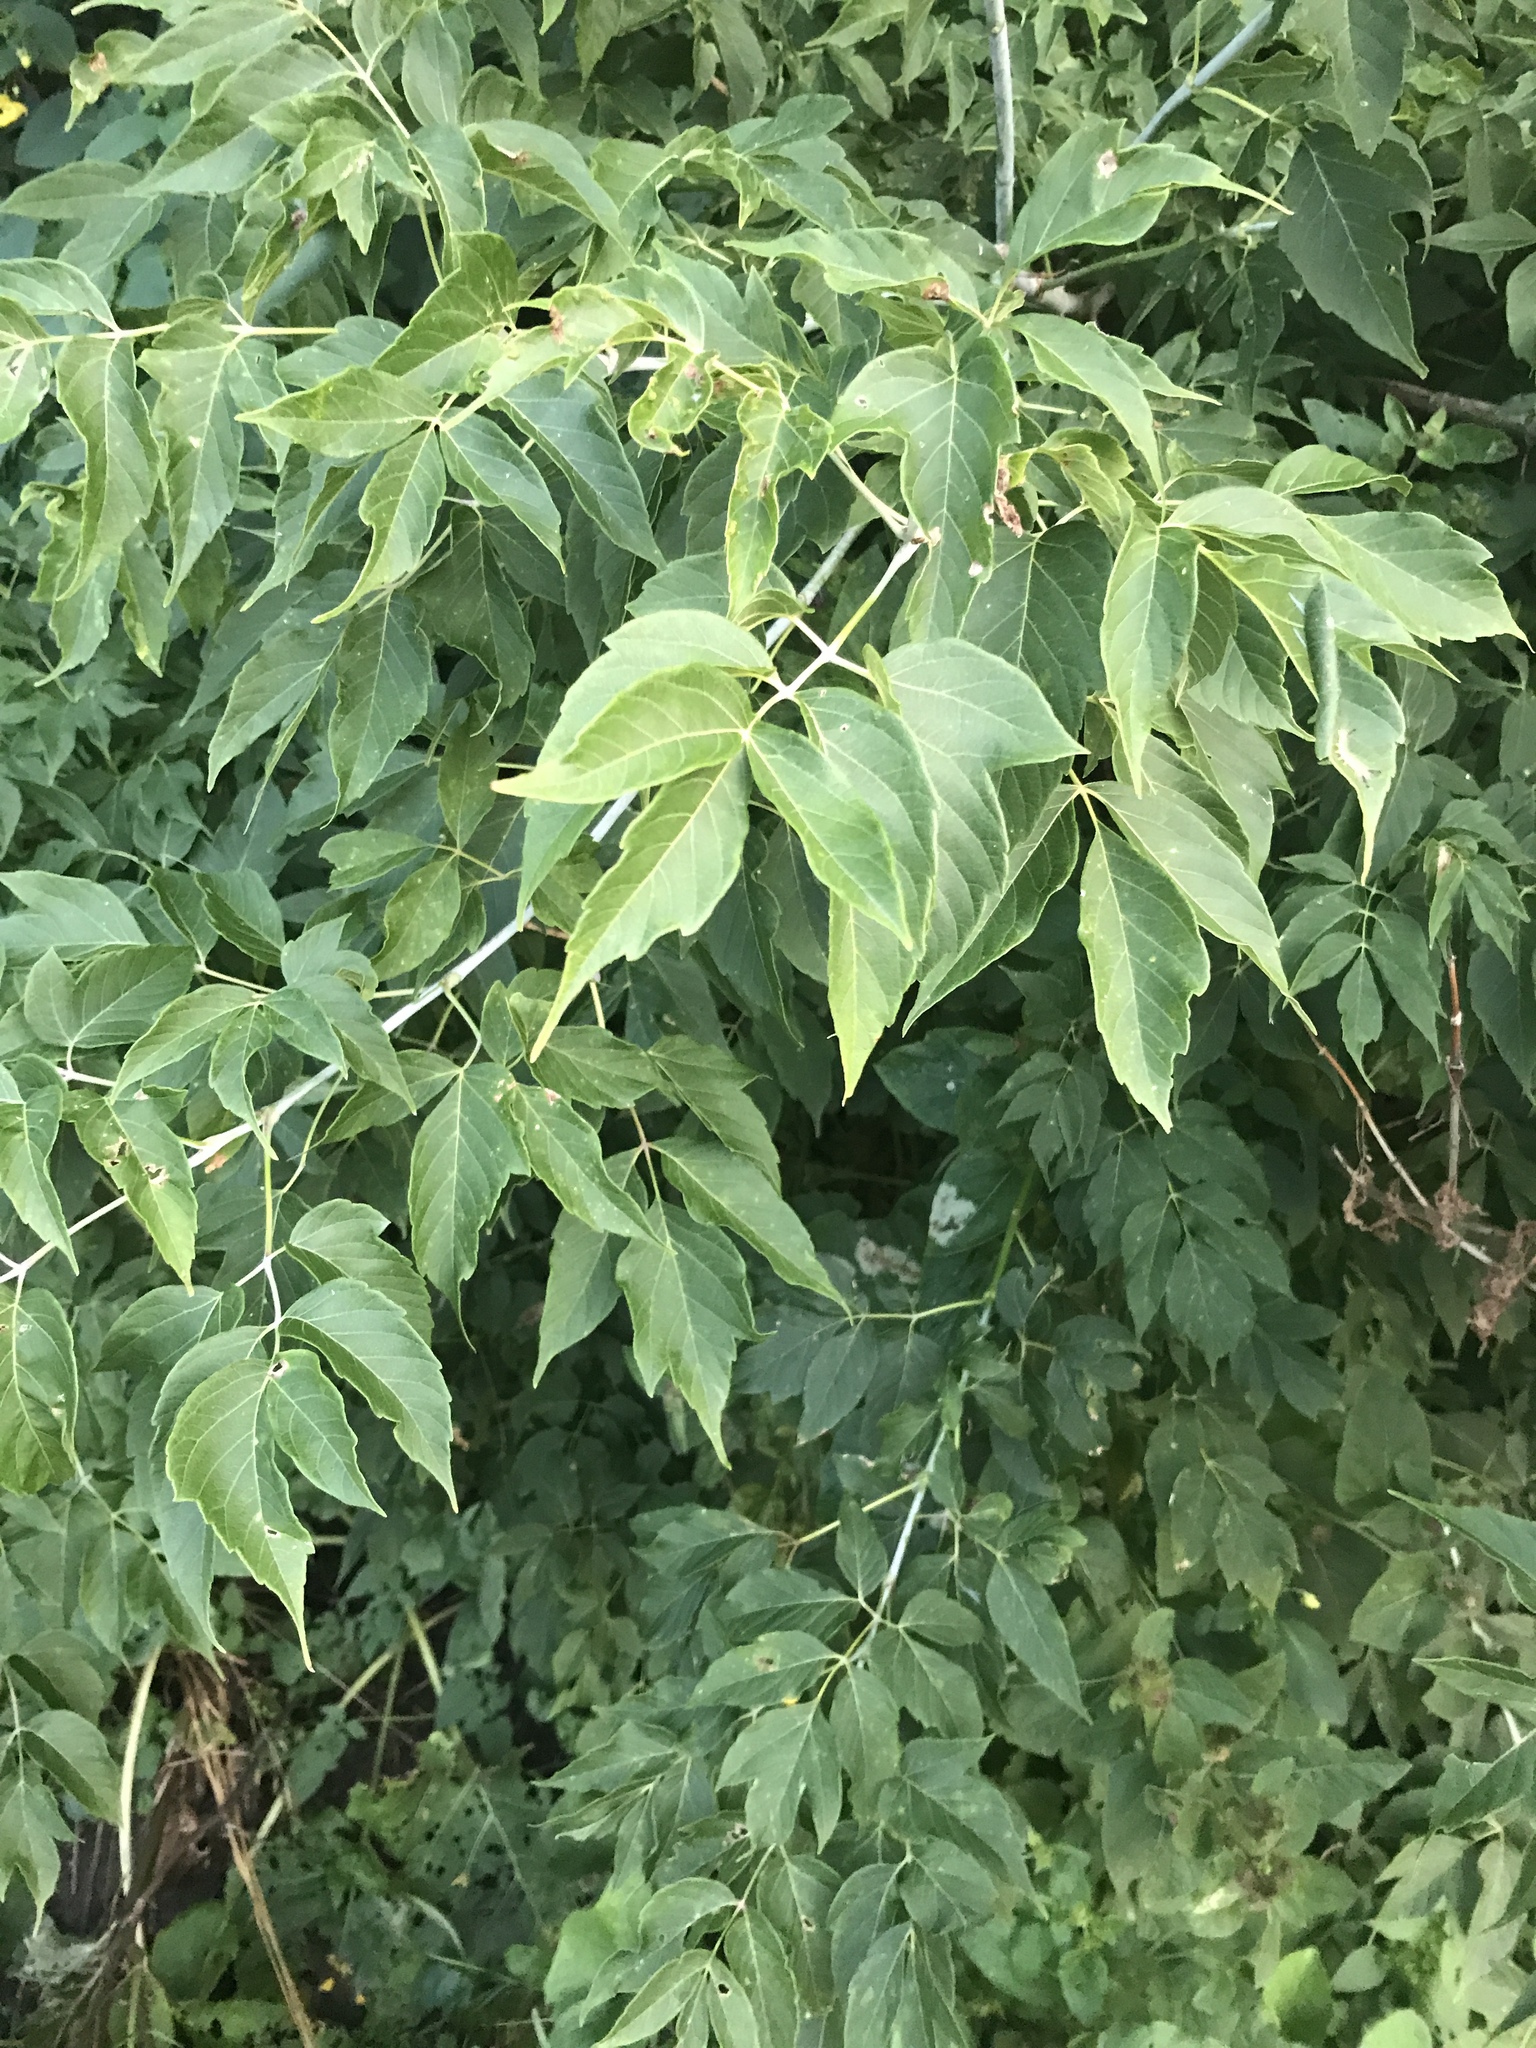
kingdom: Plantae
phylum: Tracheophyta
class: Magnoliopsida
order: Sapindales
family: Sapindaceae
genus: Acer
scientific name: Acer negundo
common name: Ashleaf maple
